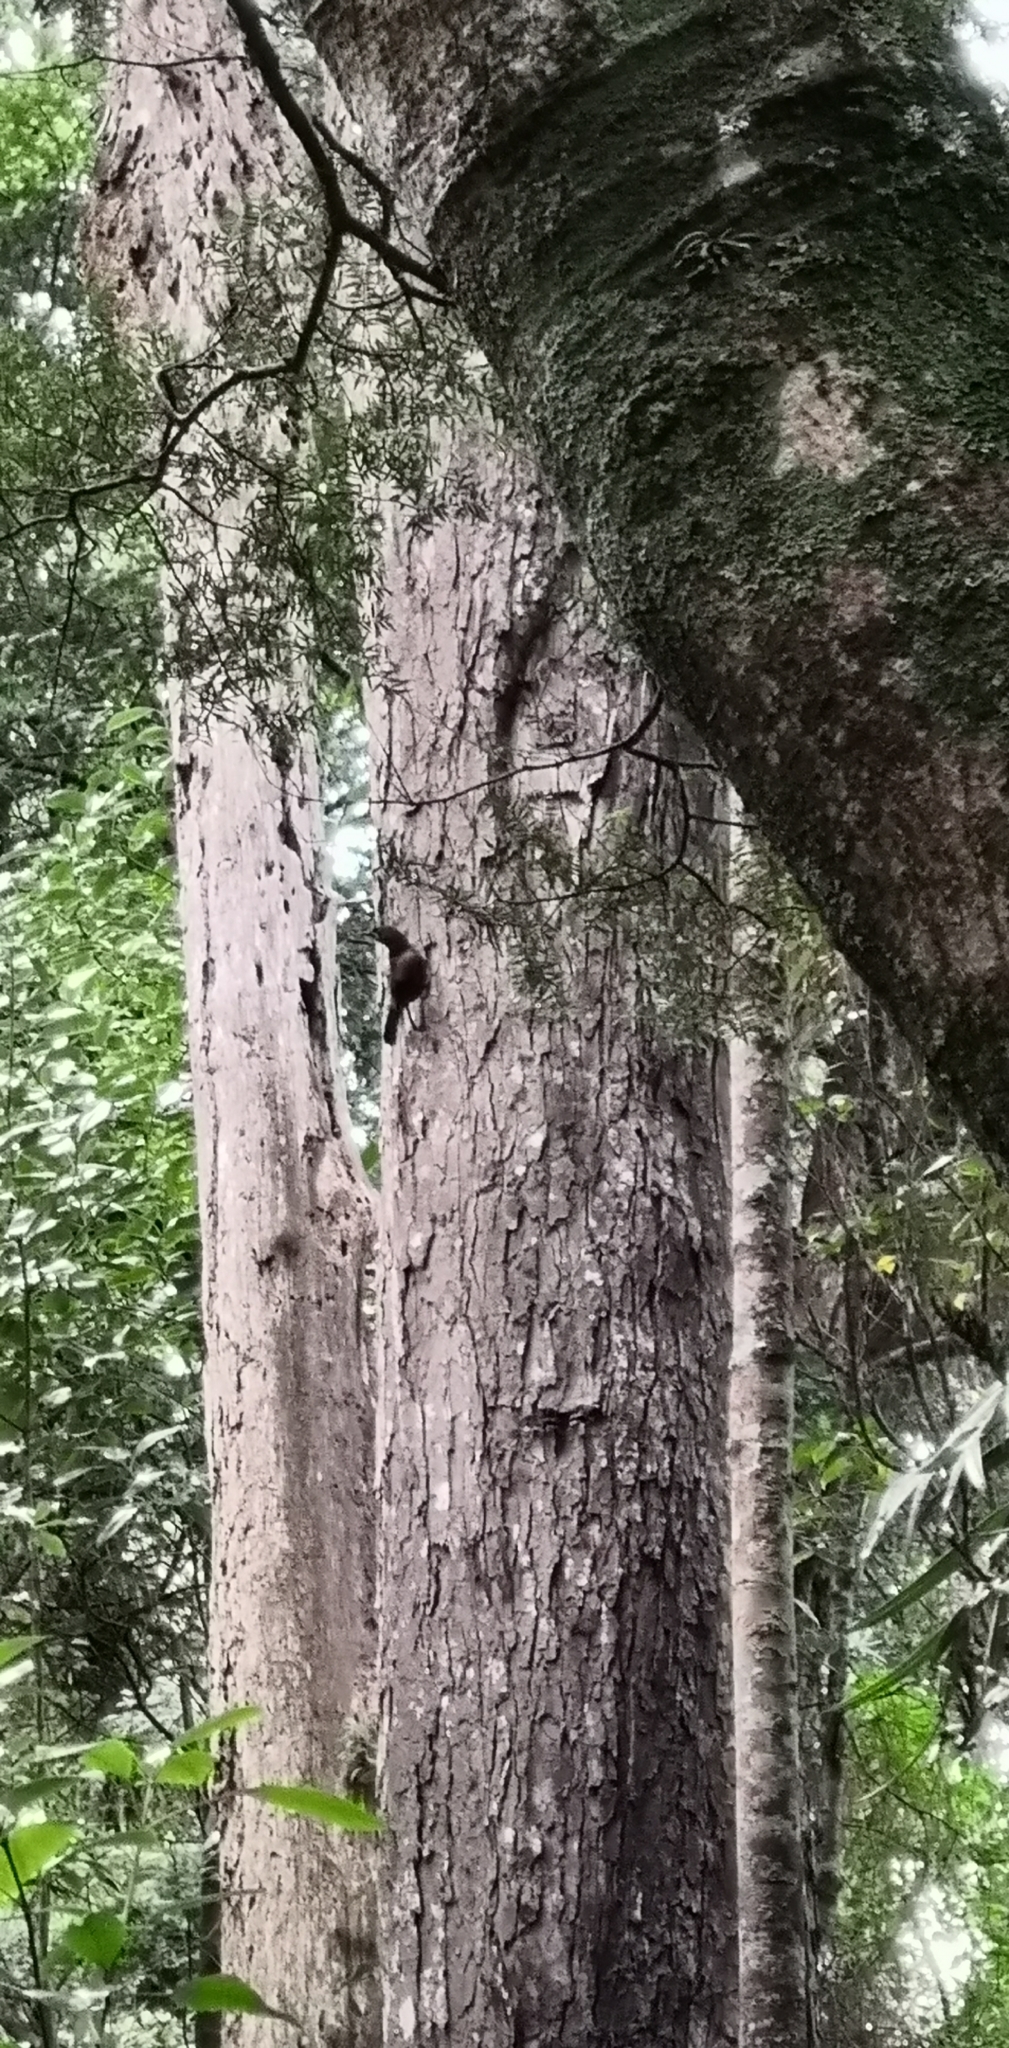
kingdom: Animalia
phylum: Chordata
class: Aves
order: Passeriformes
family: Callaeatidae
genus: Philesturnus
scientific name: Philesturnus carunculatus
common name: South island saddleback
